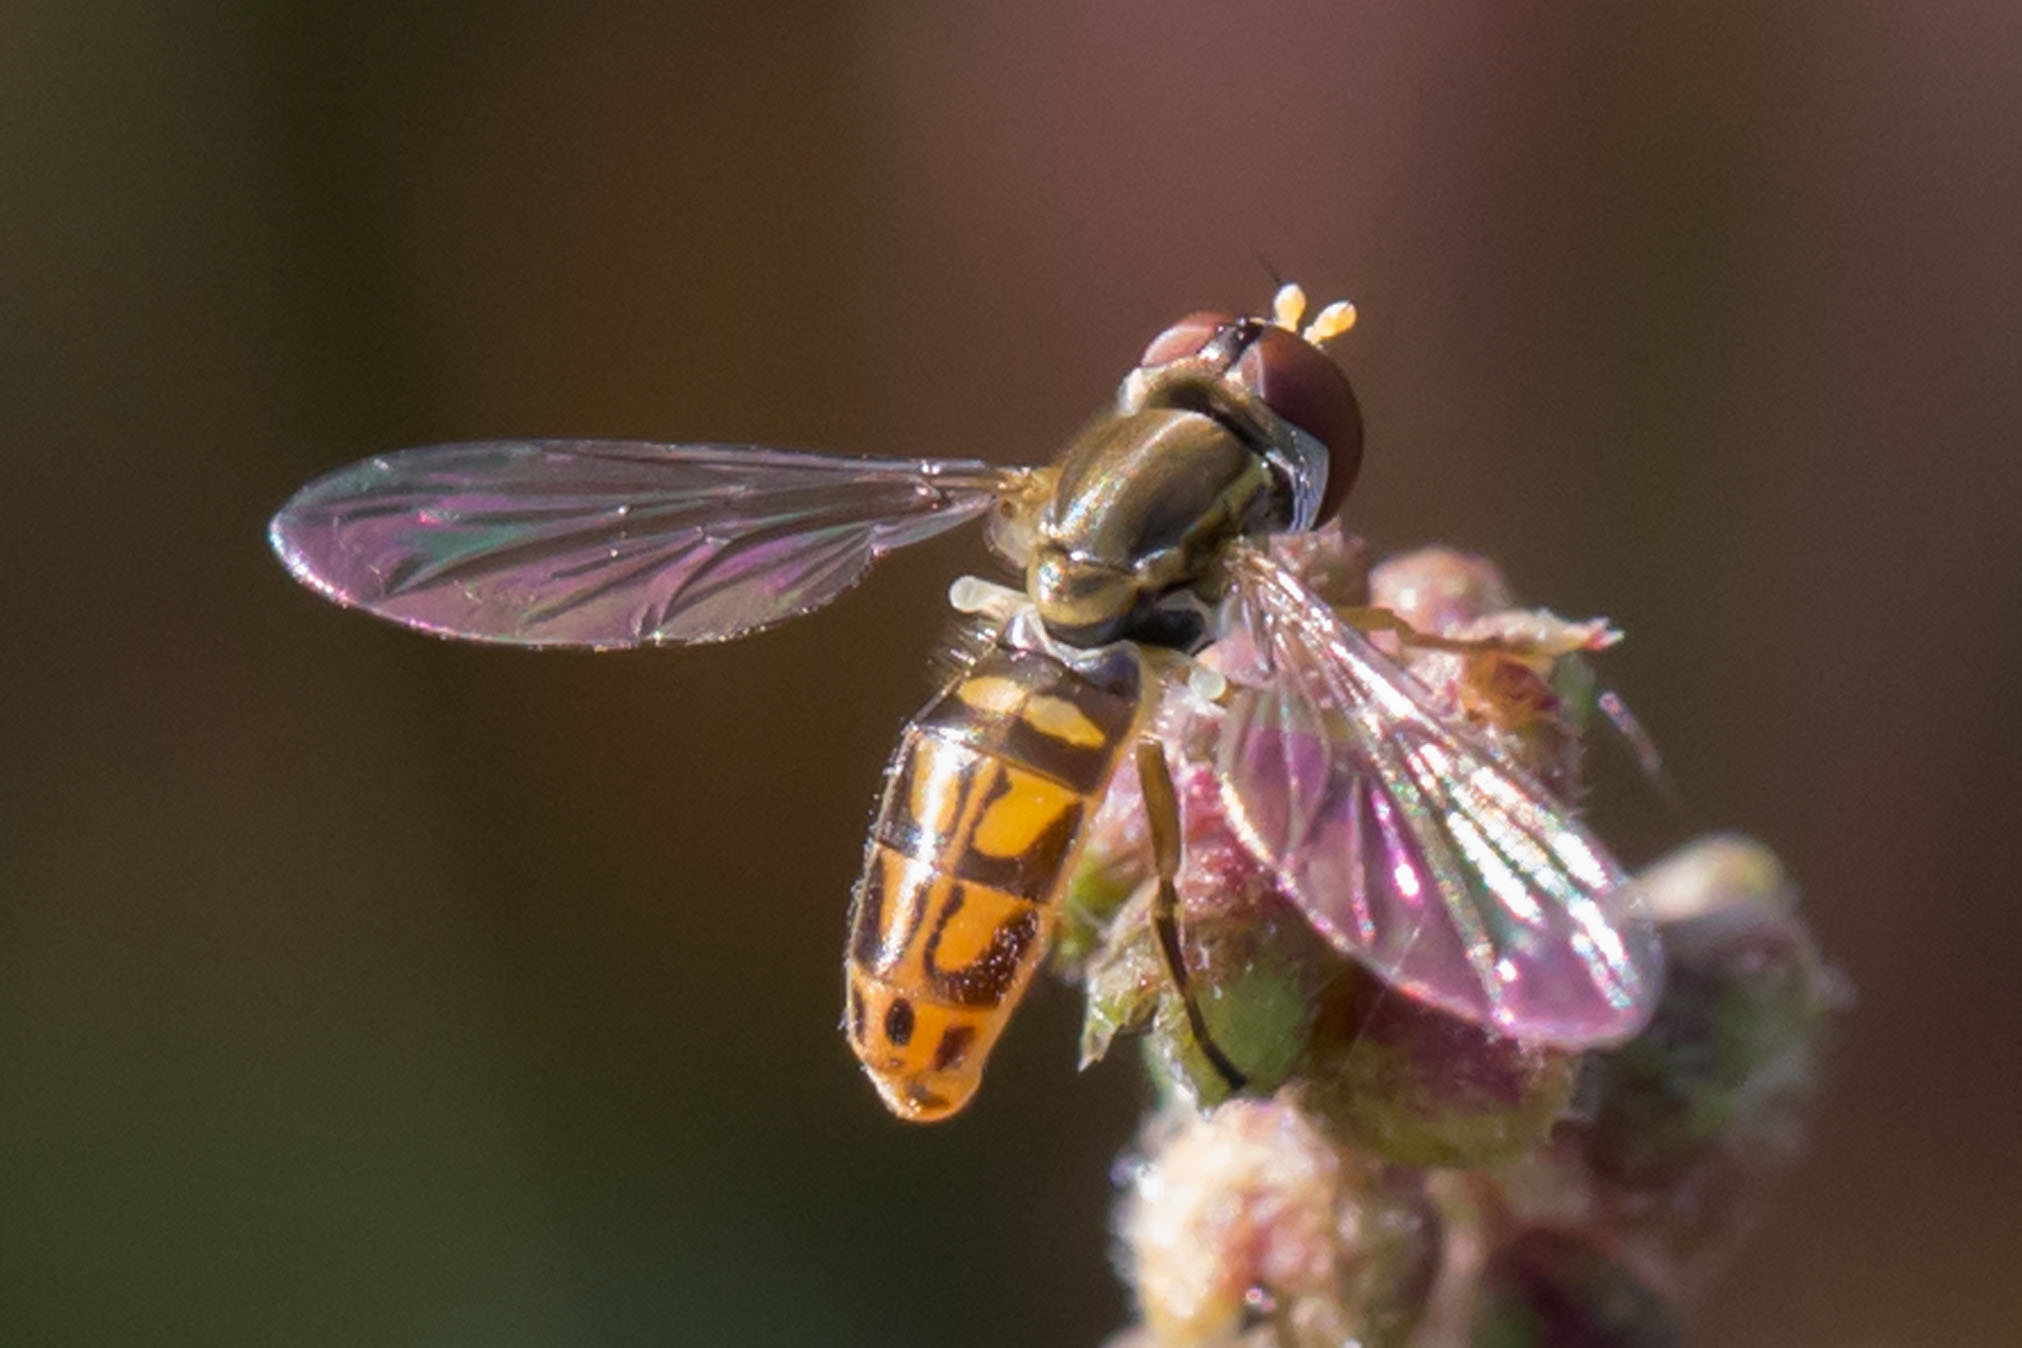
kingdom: Animalia
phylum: Arthropoda
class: Insecta
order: Diptera
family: Syrphidae
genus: Toxomerus
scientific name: Toxomerus marginatus
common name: Syrphid fly
